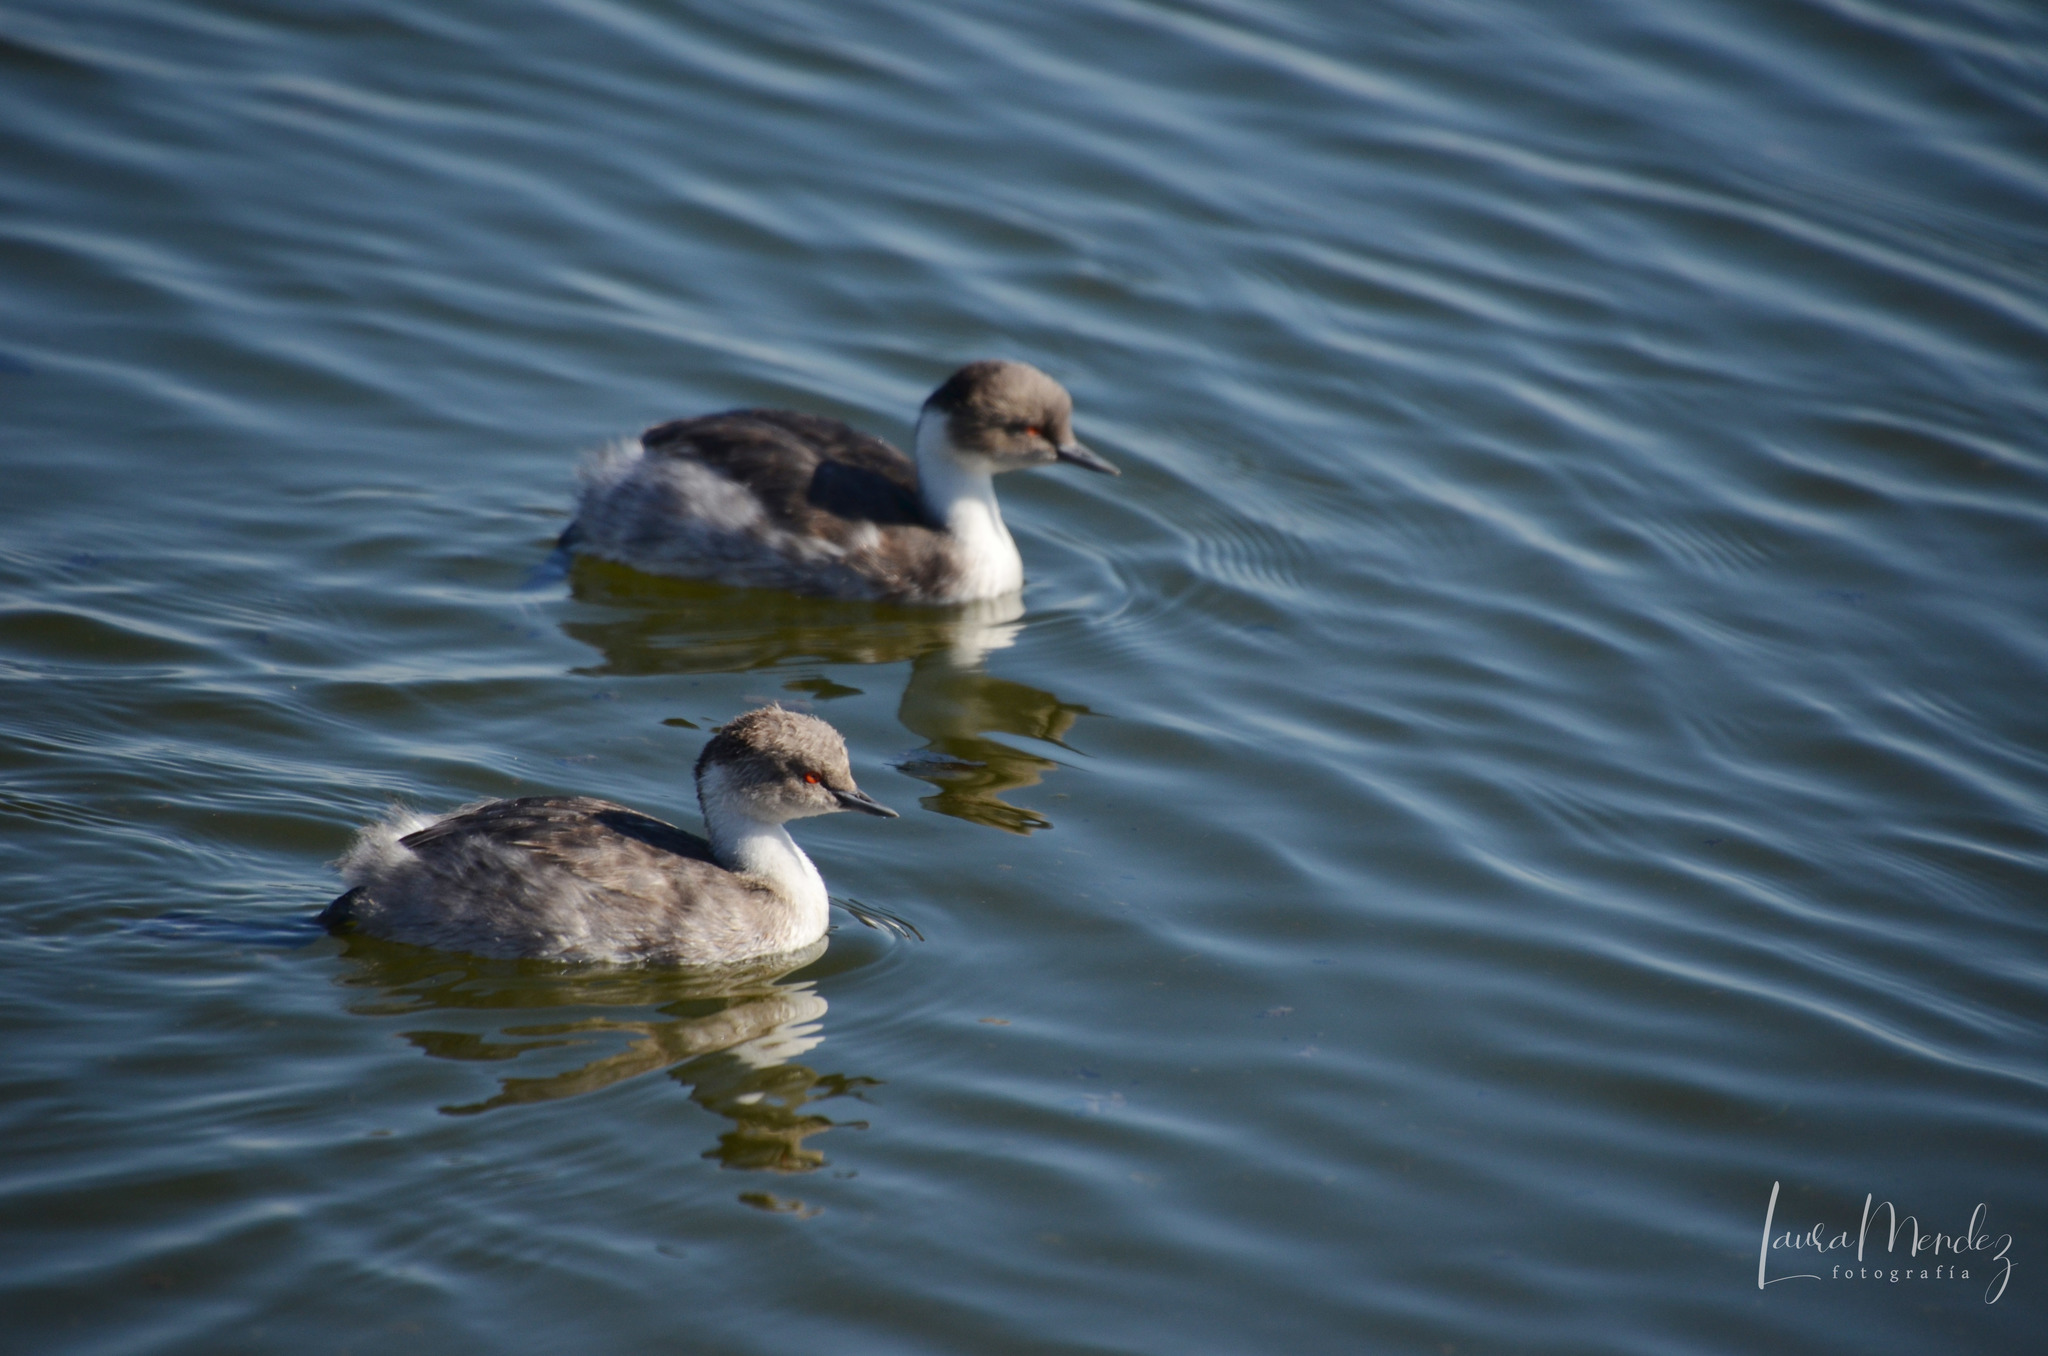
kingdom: Animalia
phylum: Chordata
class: Aves
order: Podicipediformes
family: Podicipedidae
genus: Podiceps
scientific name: Podiceps occipitalis
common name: Silvery grebe
